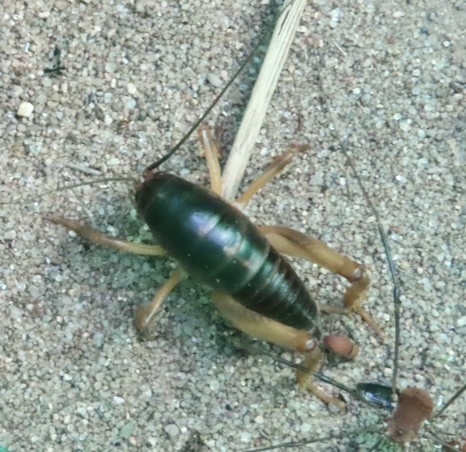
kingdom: Animalia
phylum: Arthropoda
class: Insecta
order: Orthoptera
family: Rhaphidophoridae
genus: Udeopsylla
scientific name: Udeopsylla robusta
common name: Robust camel cricket
